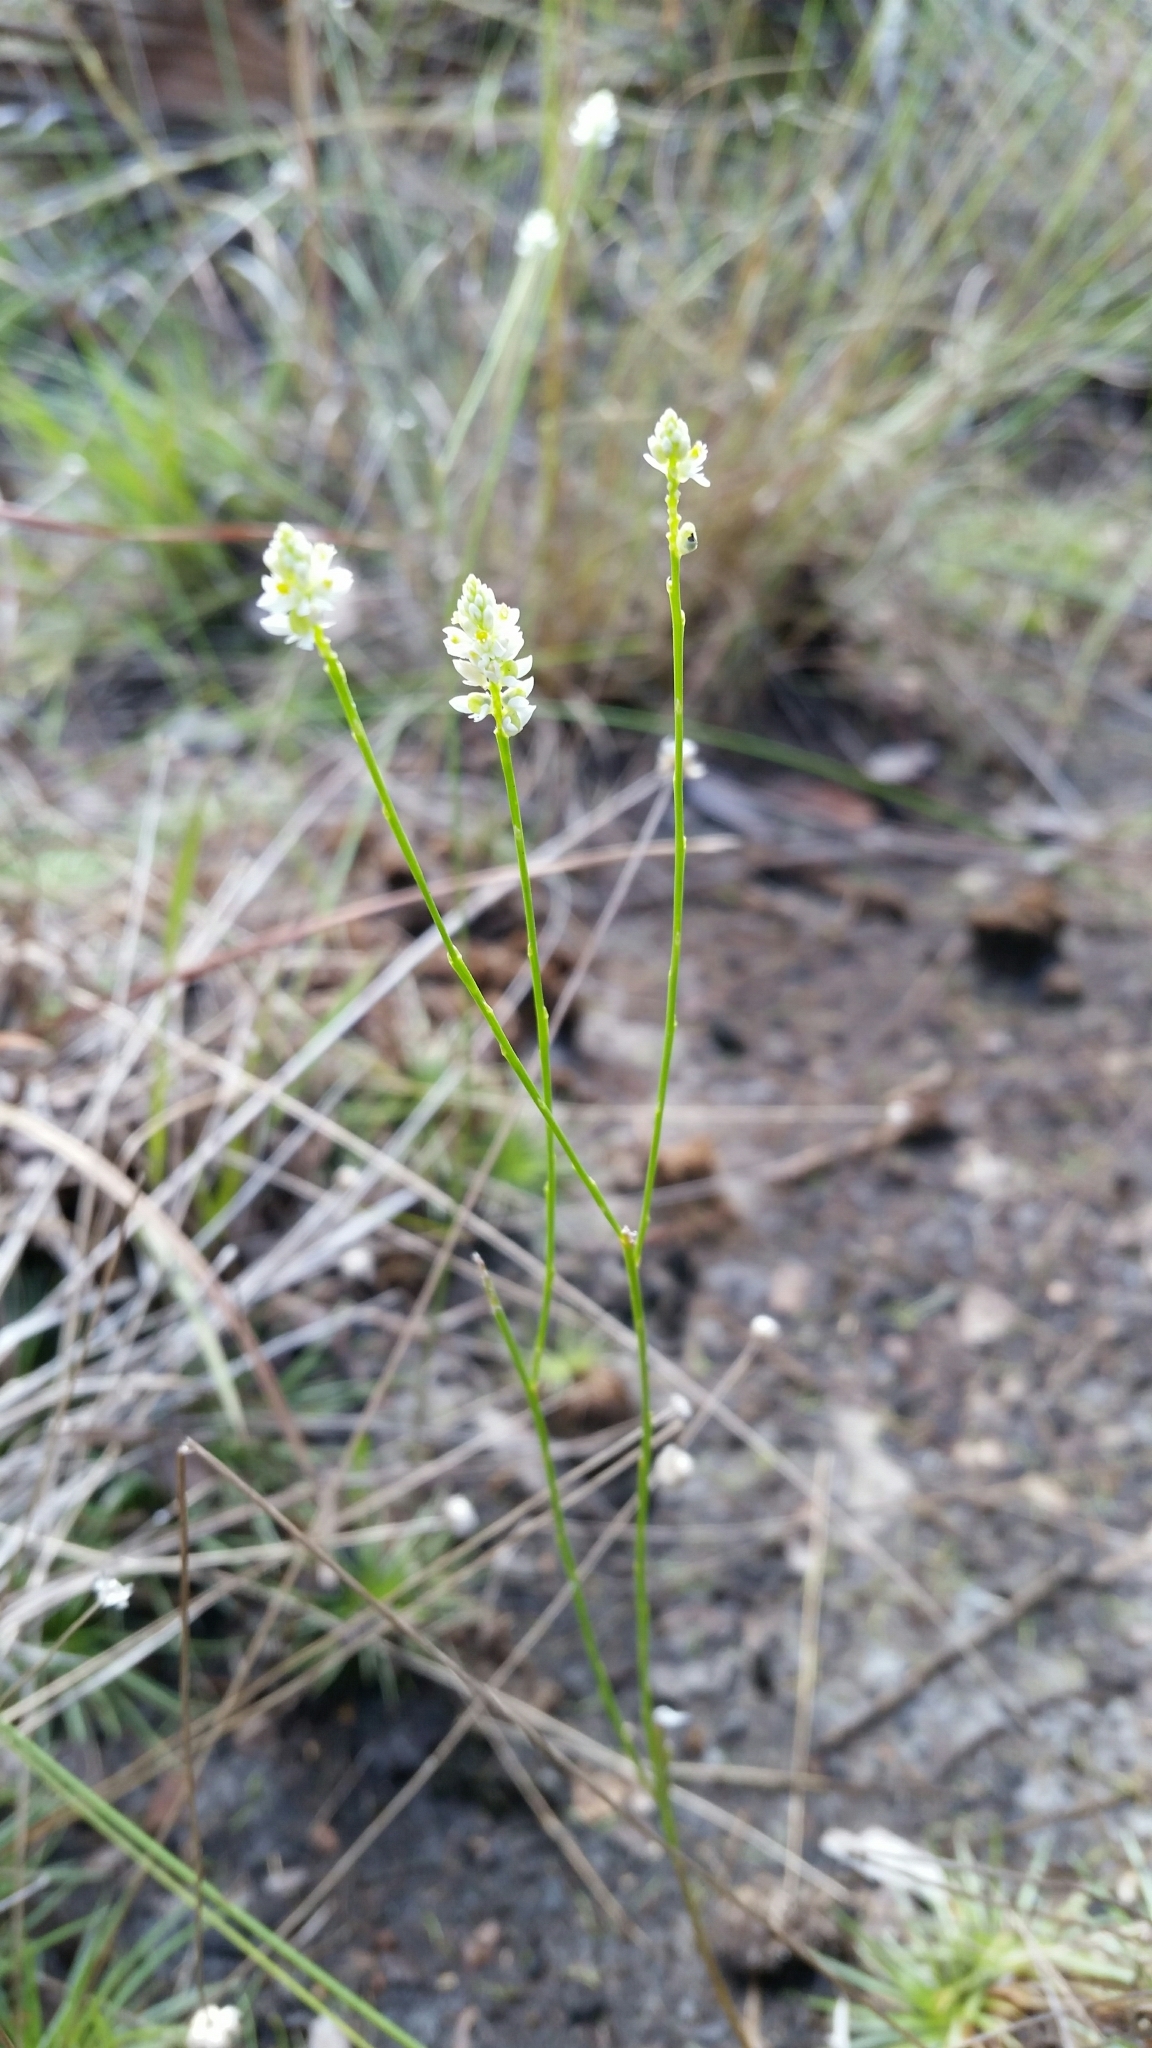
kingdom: Plantae
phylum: Tracheophyta
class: Magnoliopsida
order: Fabales
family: Polygalaceae
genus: Polygala
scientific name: Polygala setacea
